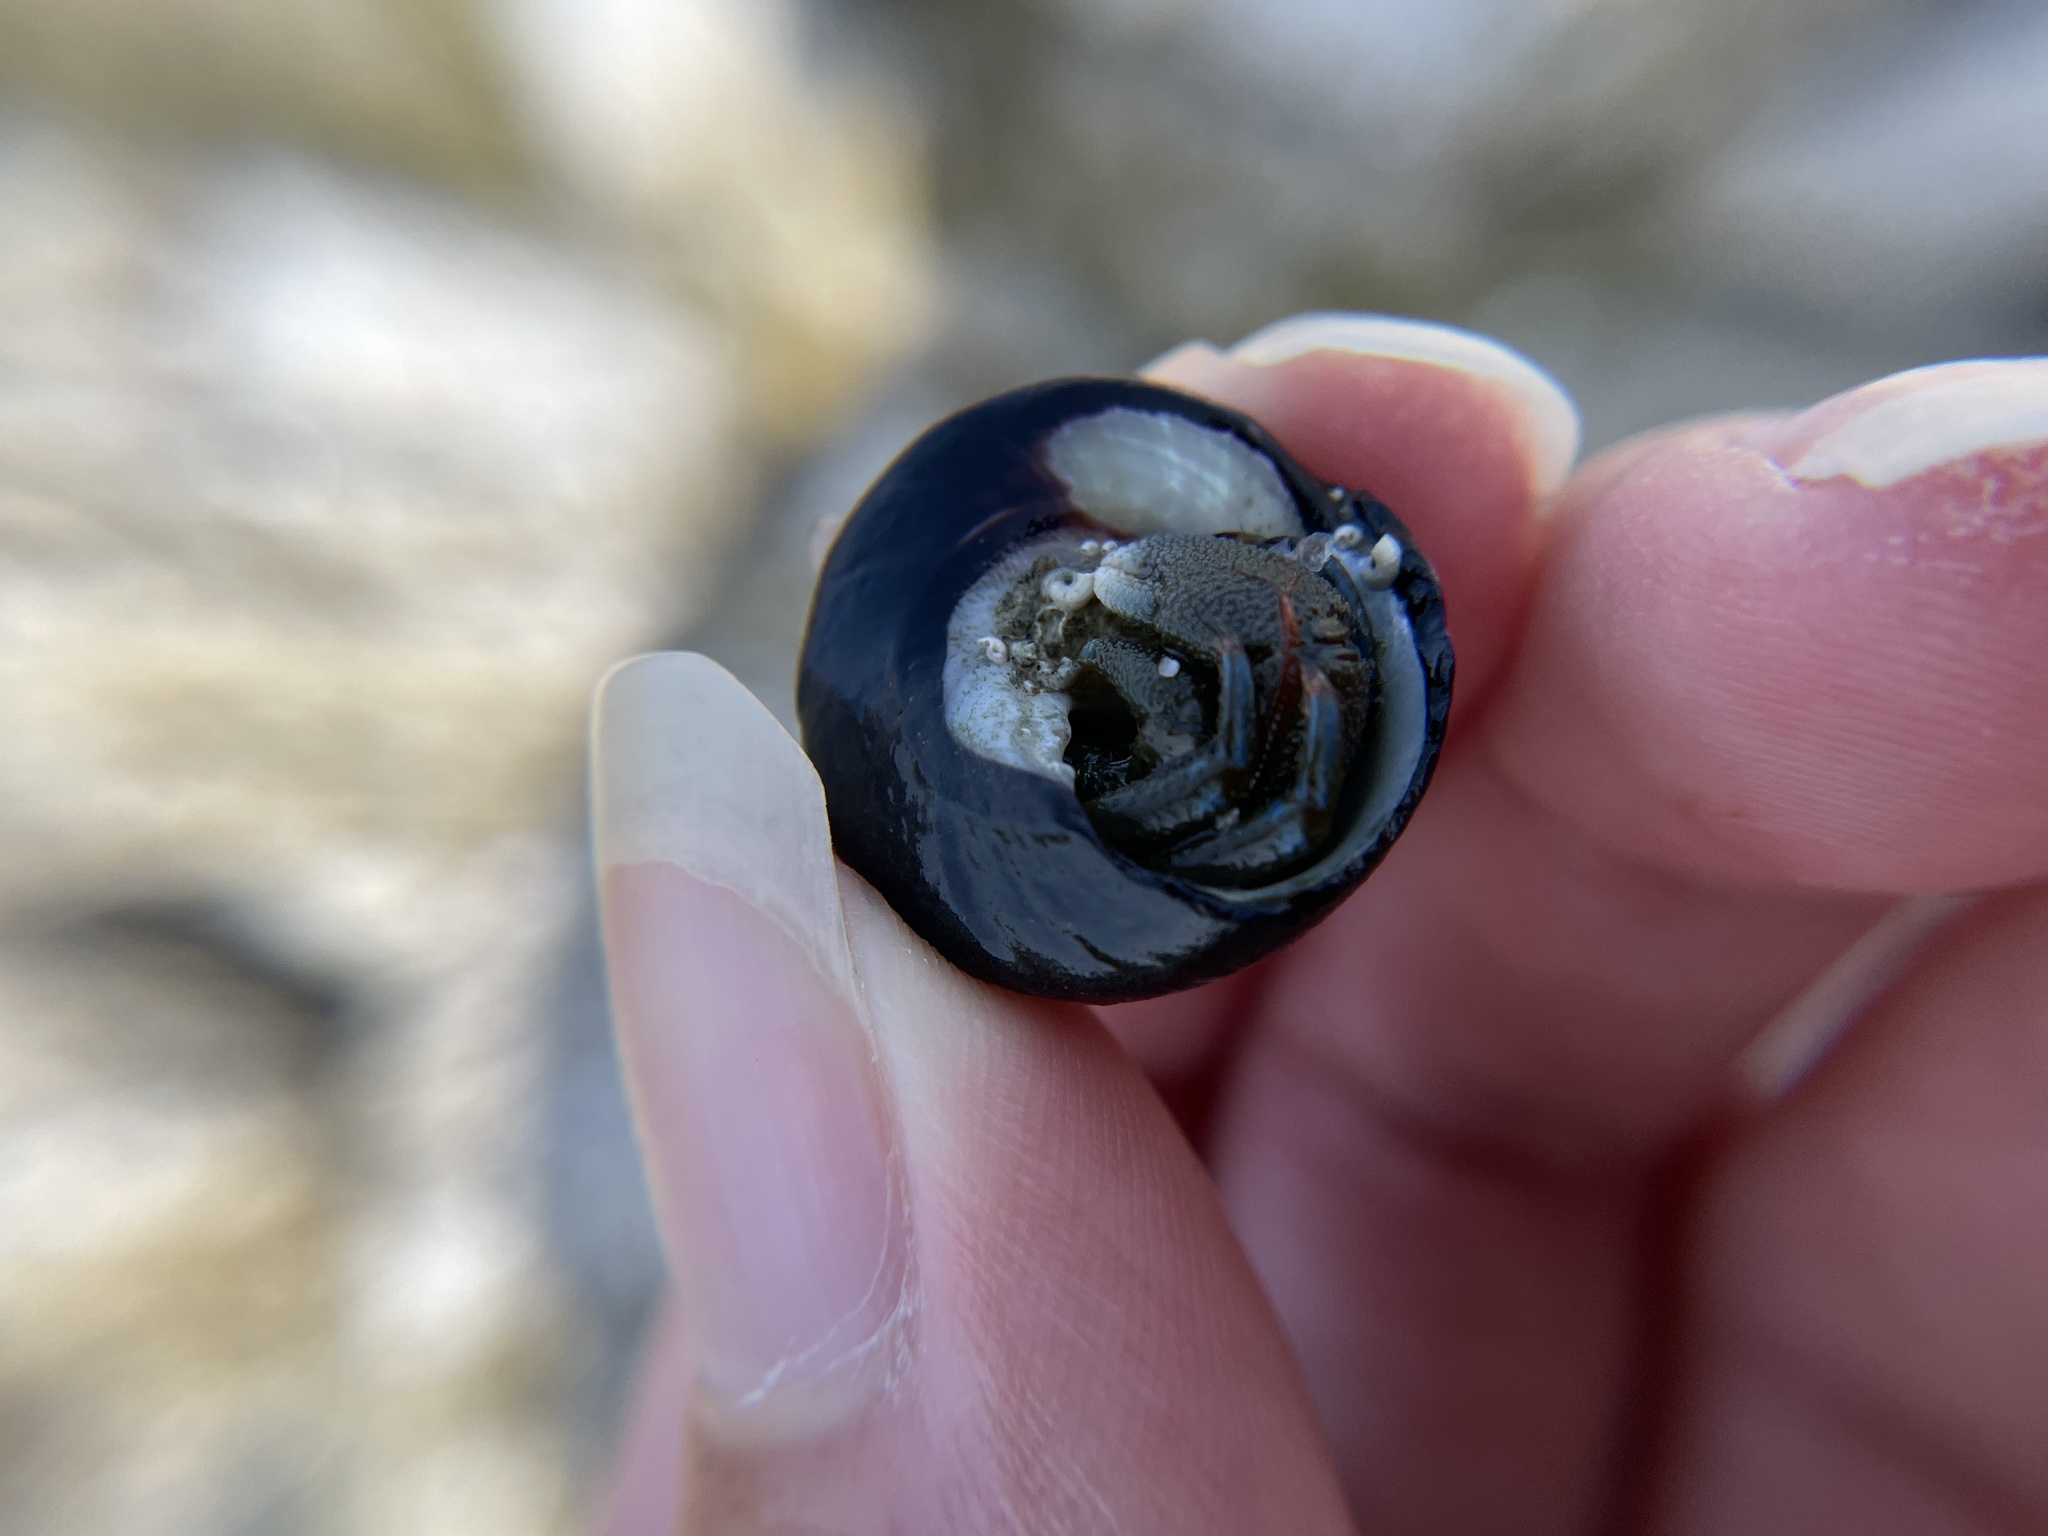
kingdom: Animalia
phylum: Arthropoda
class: Malacostraca
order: Decapoda
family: Paguridae
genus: Pagurus
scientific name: Pagurus samuelis
